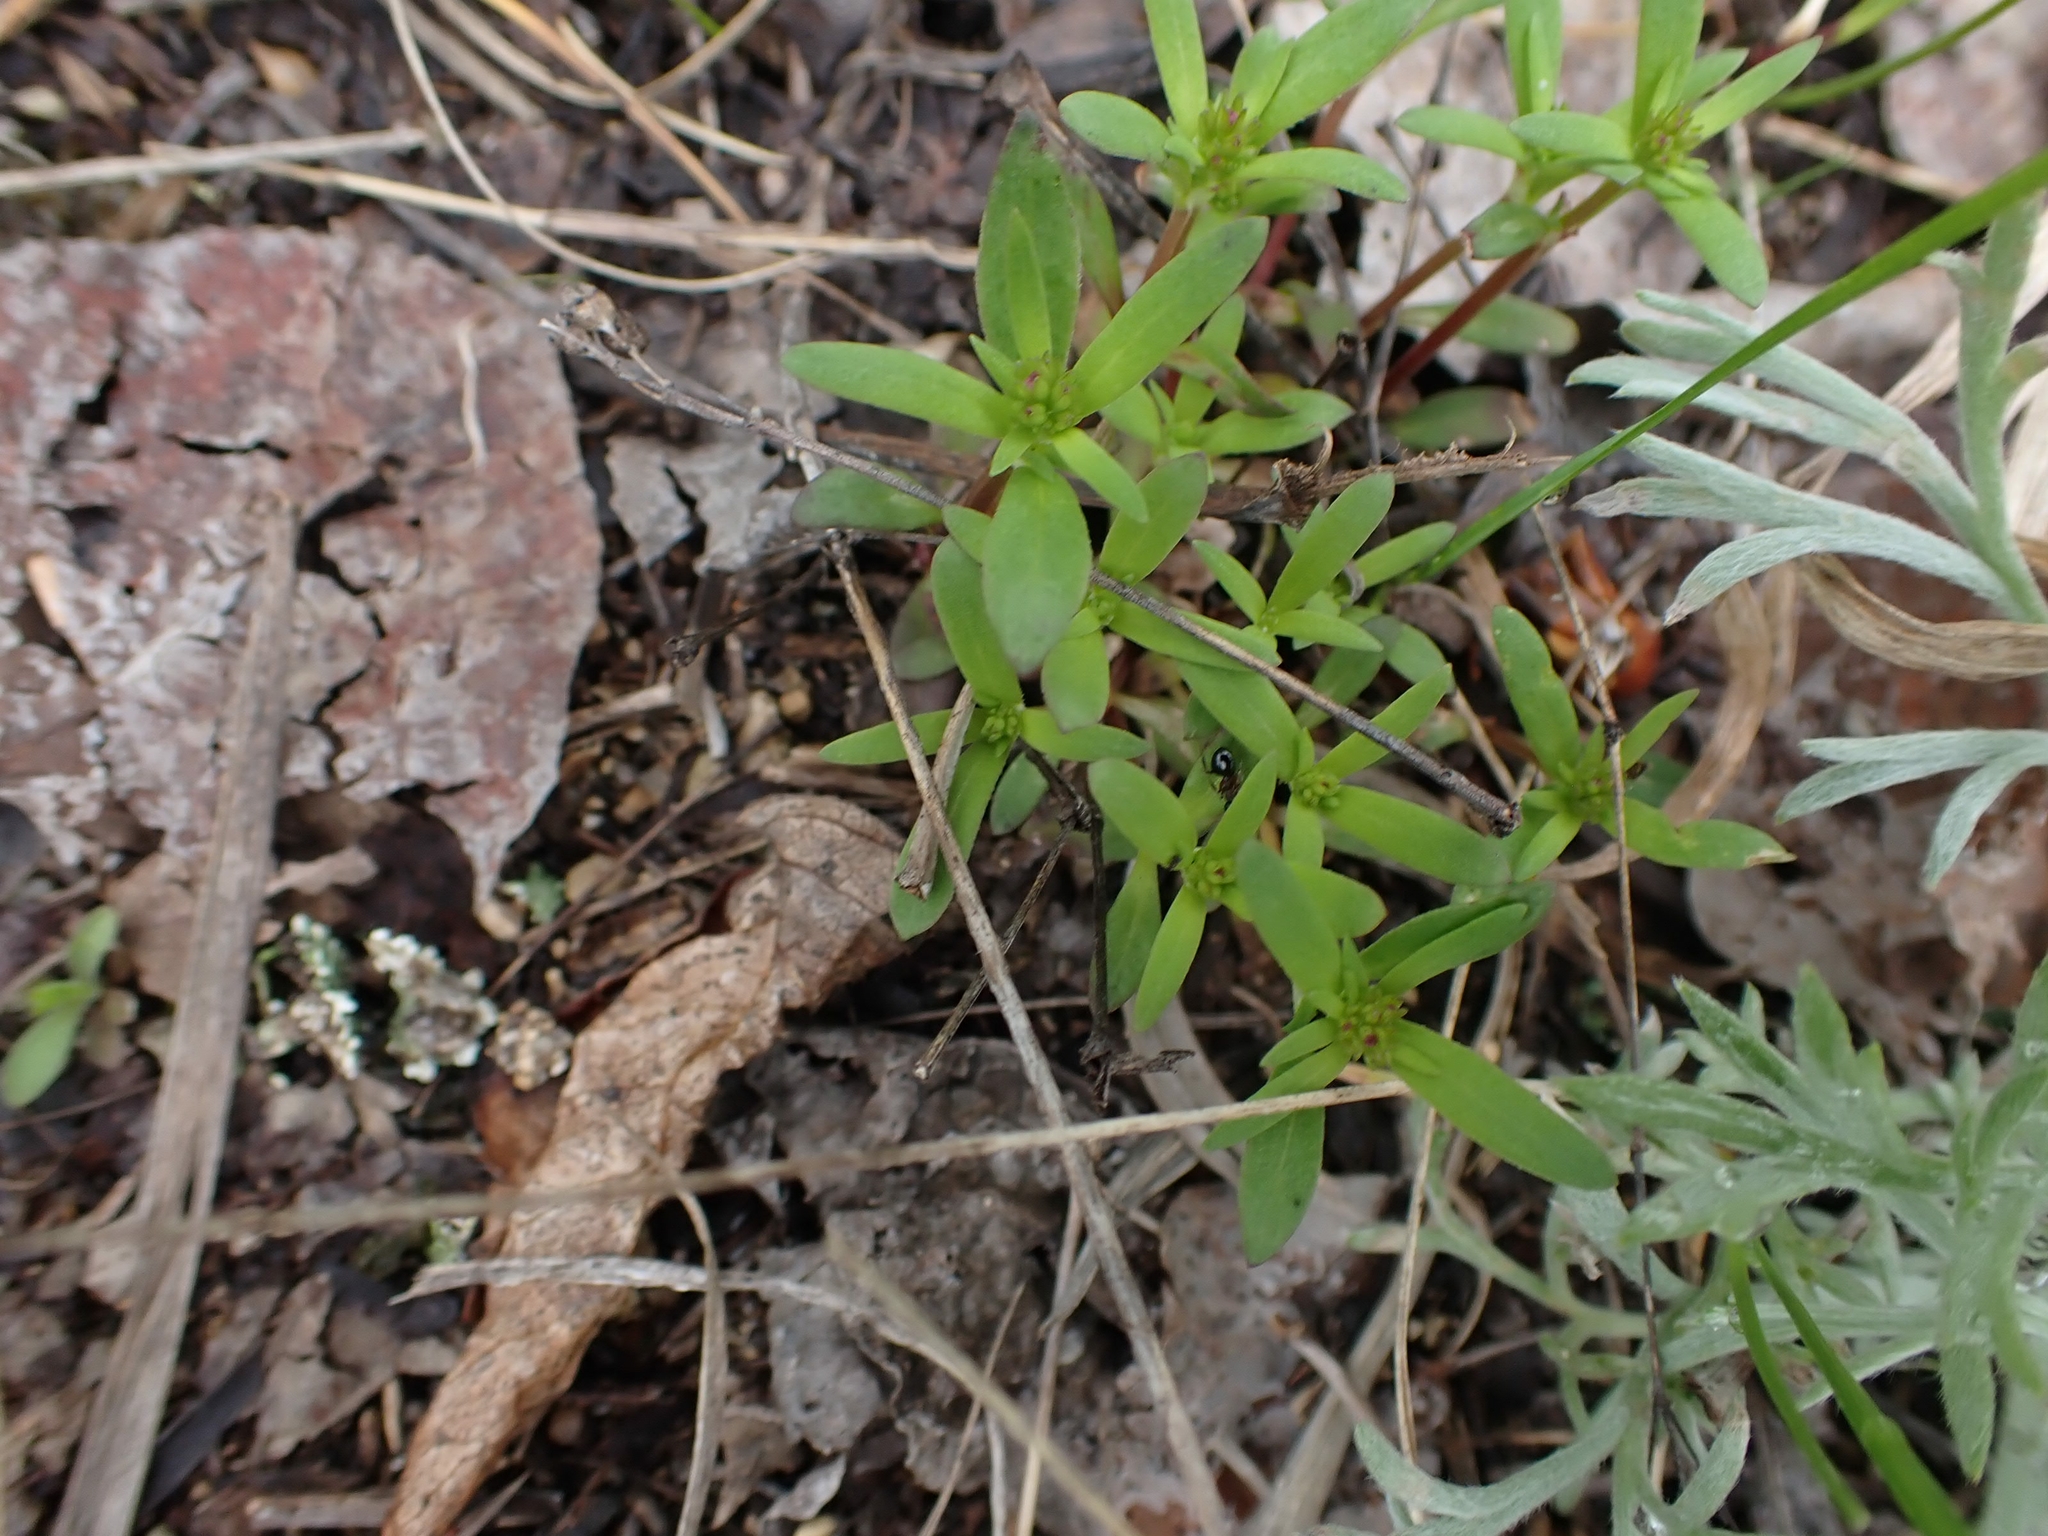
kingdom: Plantae
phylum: Tracheophyta
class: Magnoliopsida
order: Gentianales
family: Rubiaceae
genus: Houstonia
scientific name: Houstonia longifolia
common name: Long-leaved bluets
